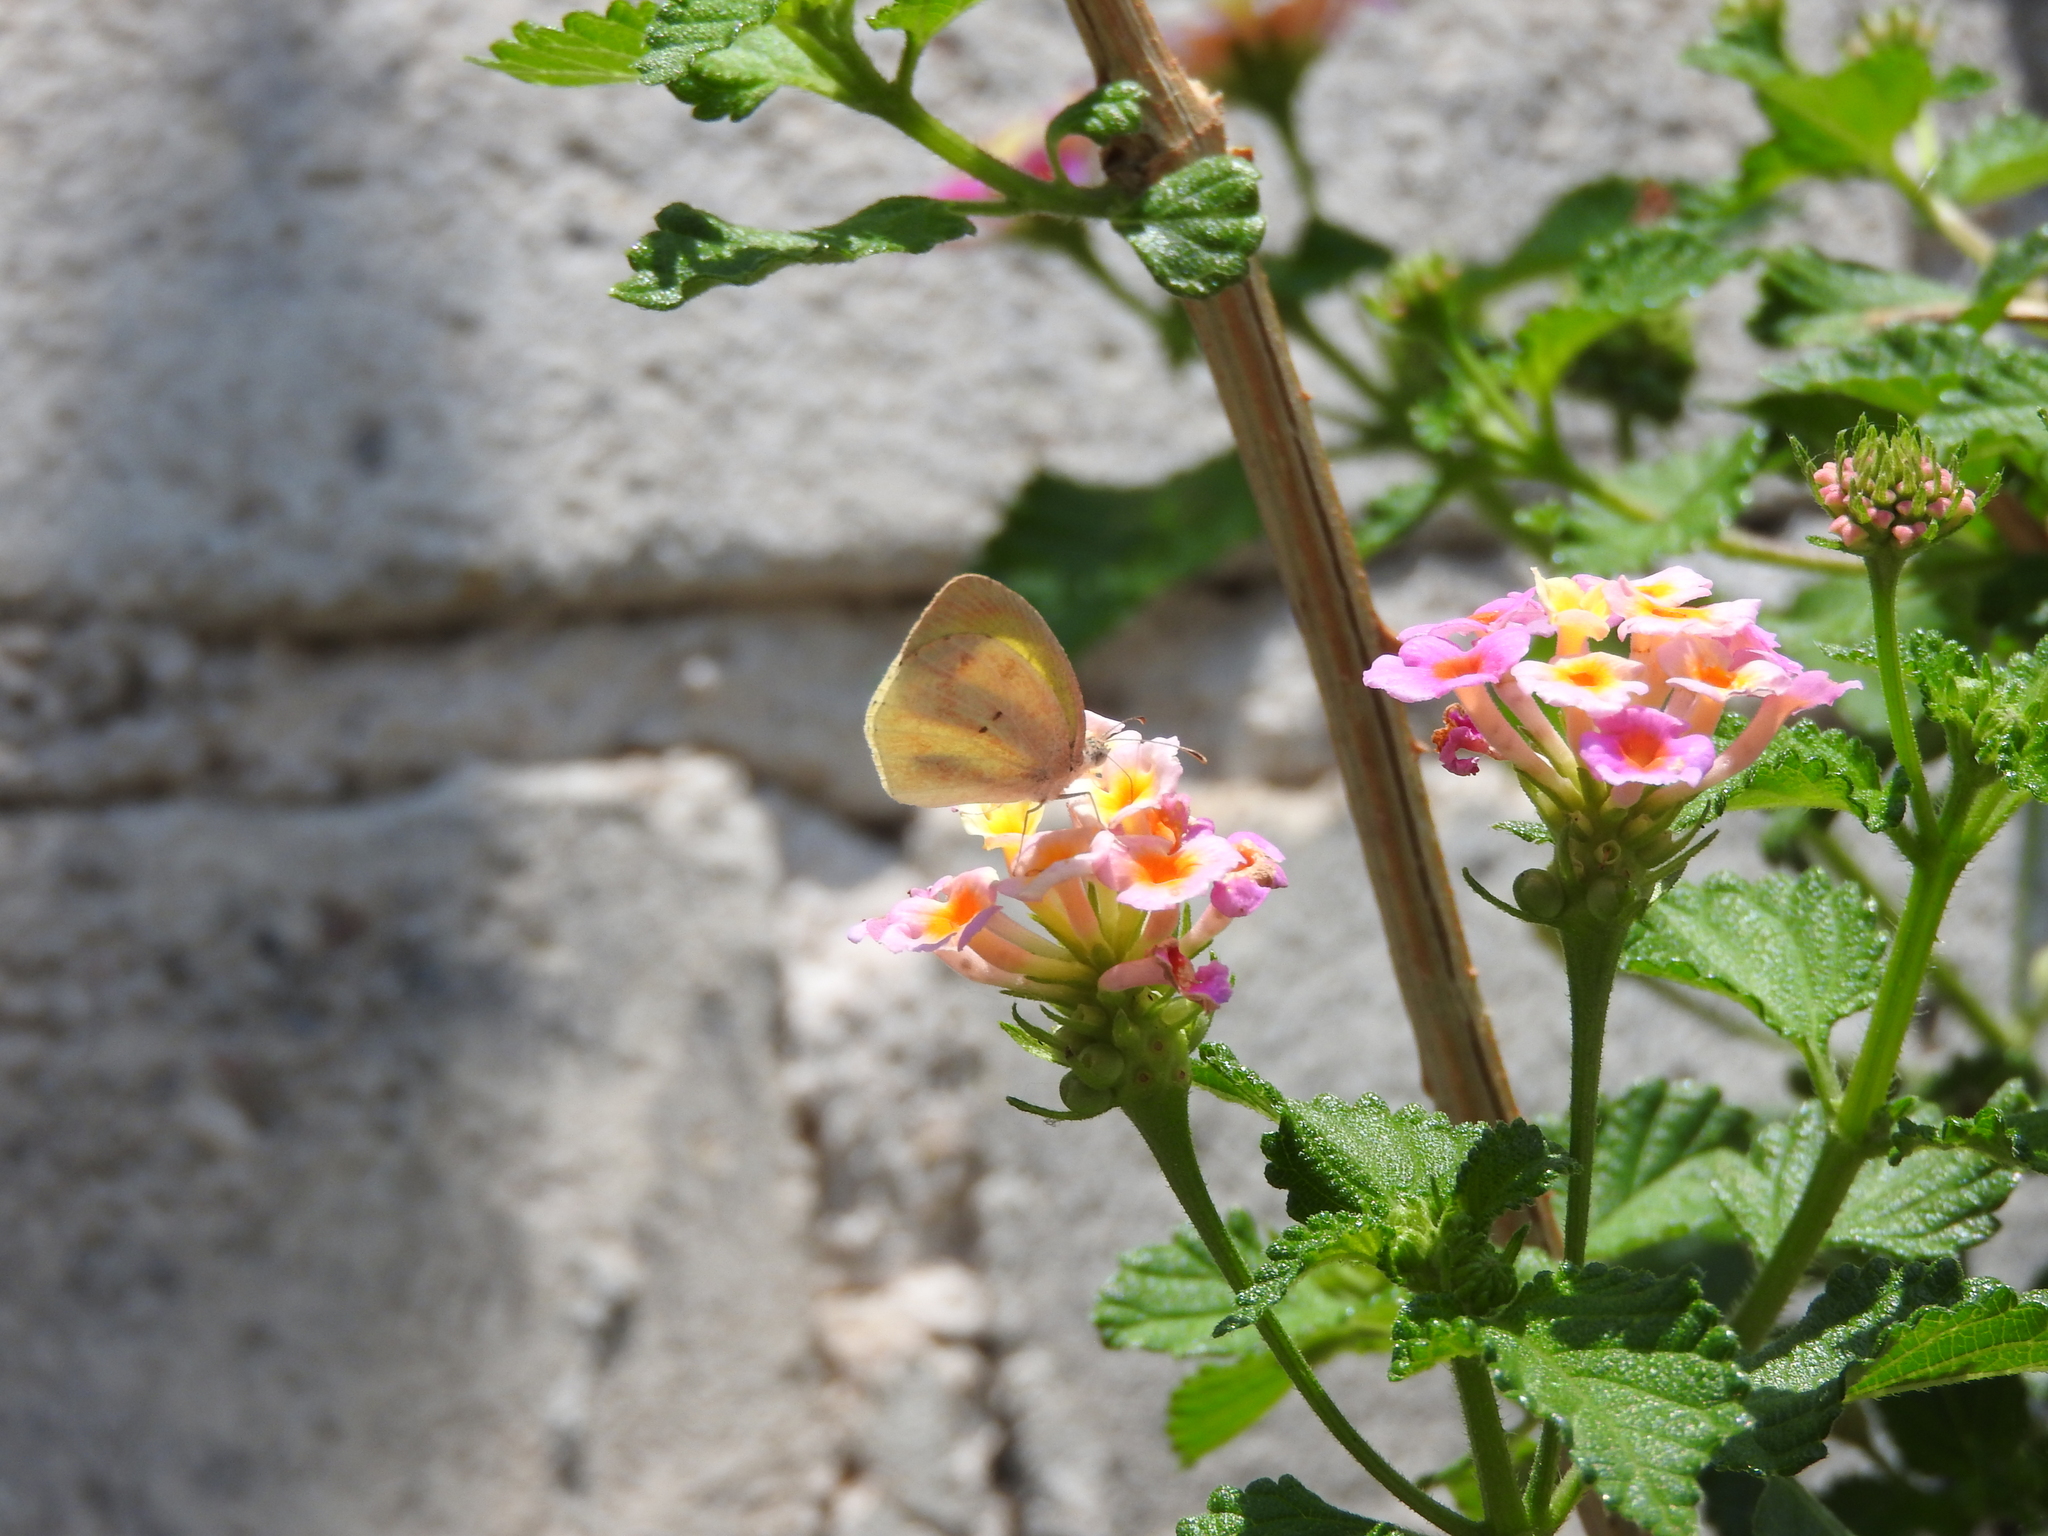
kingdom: Animalia
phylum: Arthropoda
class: Insecta
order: Lepidoptera
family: Pieridae
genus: Eurema
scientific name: Eurema daira
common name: Barred sulphur
